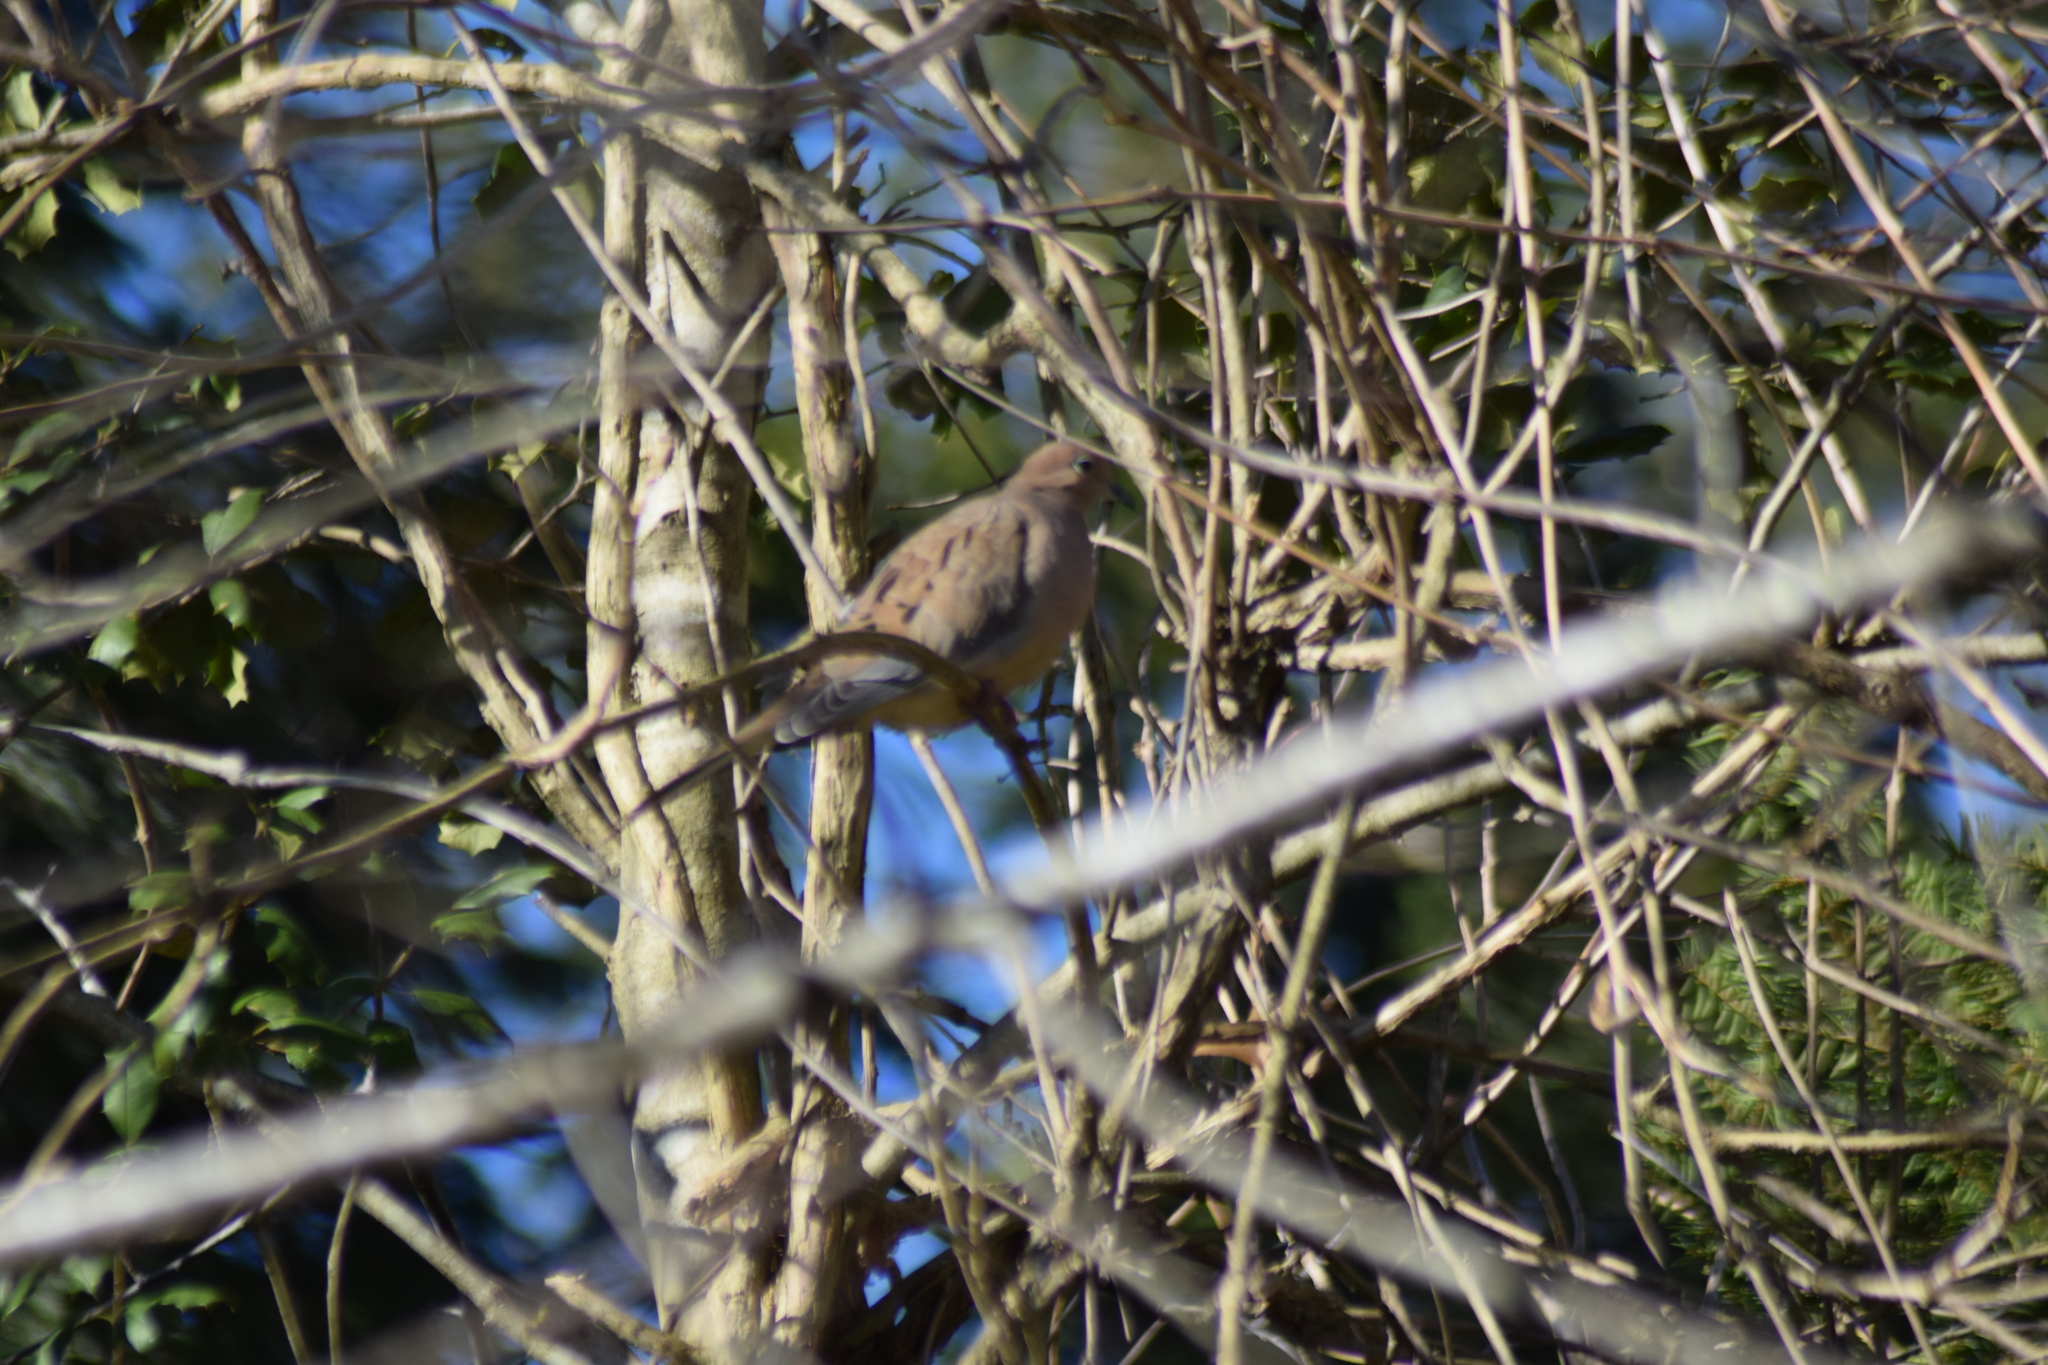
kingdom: Animalia
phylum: Chordata
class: Aves
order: Columbiformes
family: Columbidae
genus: Zenaida
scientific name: Zenaida macroura
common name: Mourning dove
